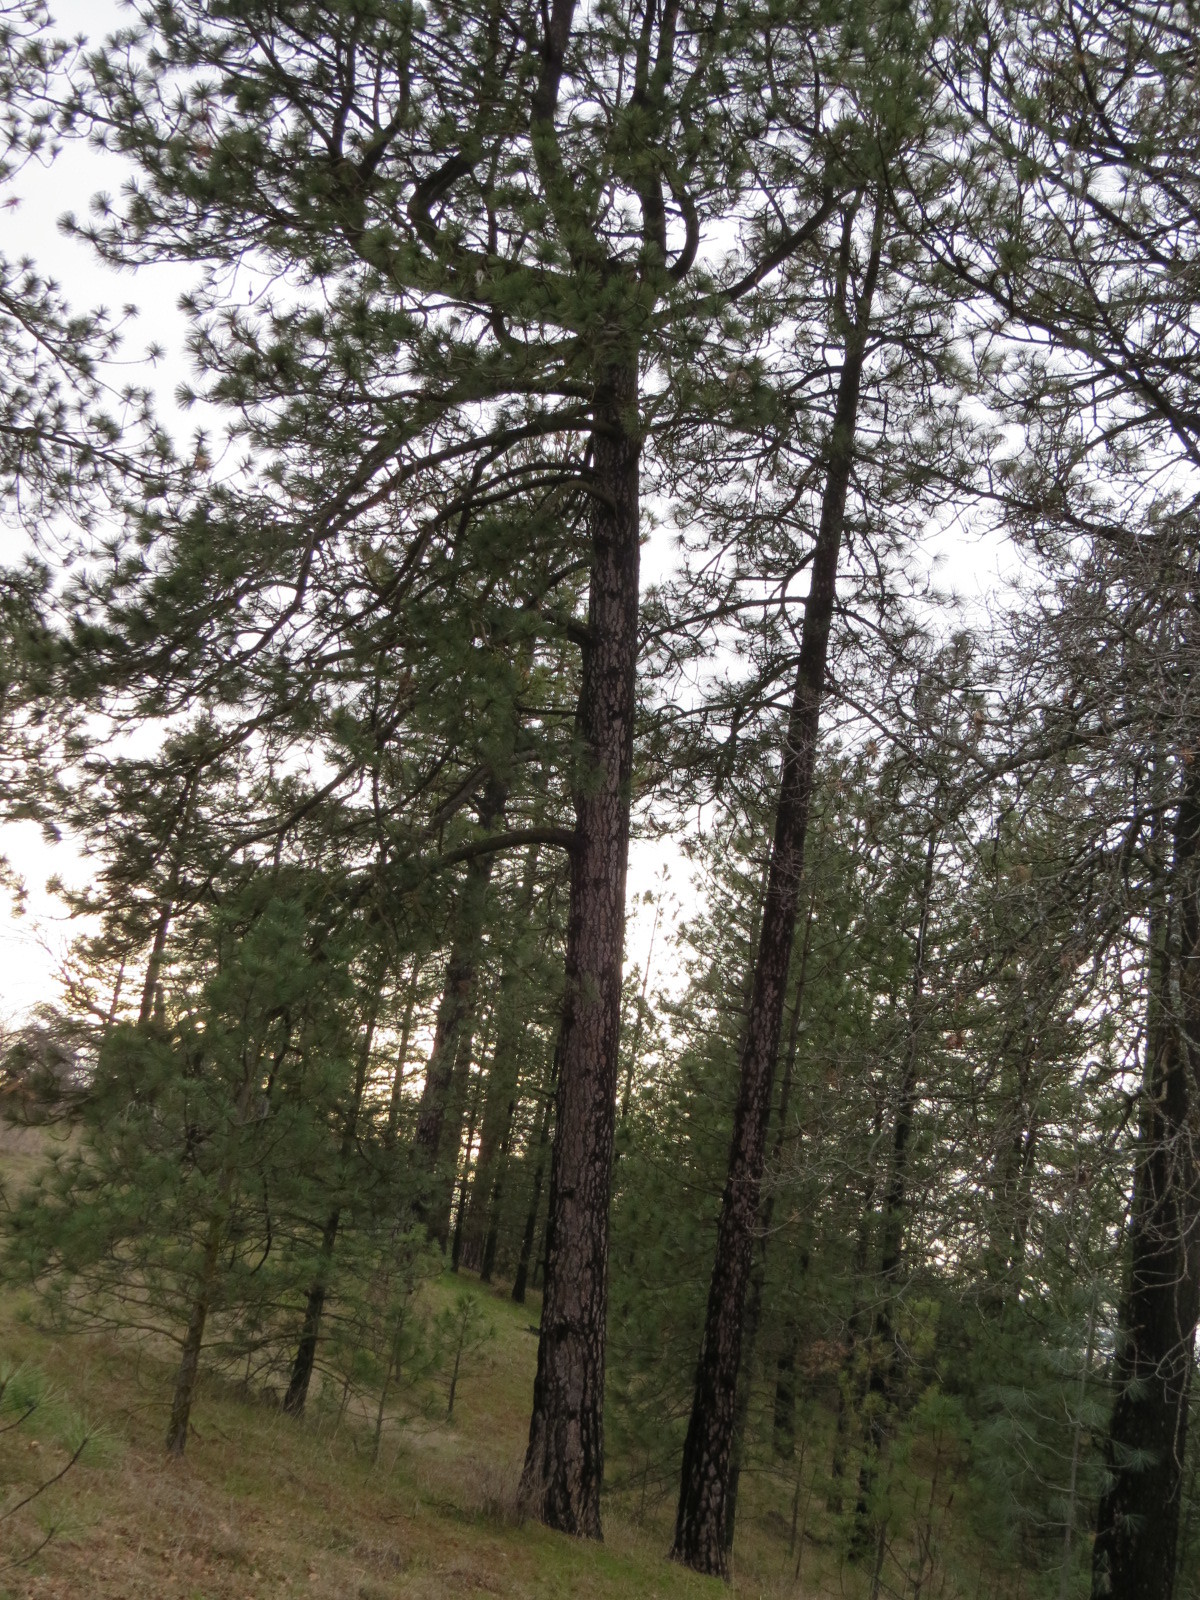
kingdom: Plantae
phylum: Tracheophyta
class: Pinopsida
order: Pinales
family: Pinaceae
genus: Pinus
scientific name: Pinus ponderosa
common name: Western yellow-pine
